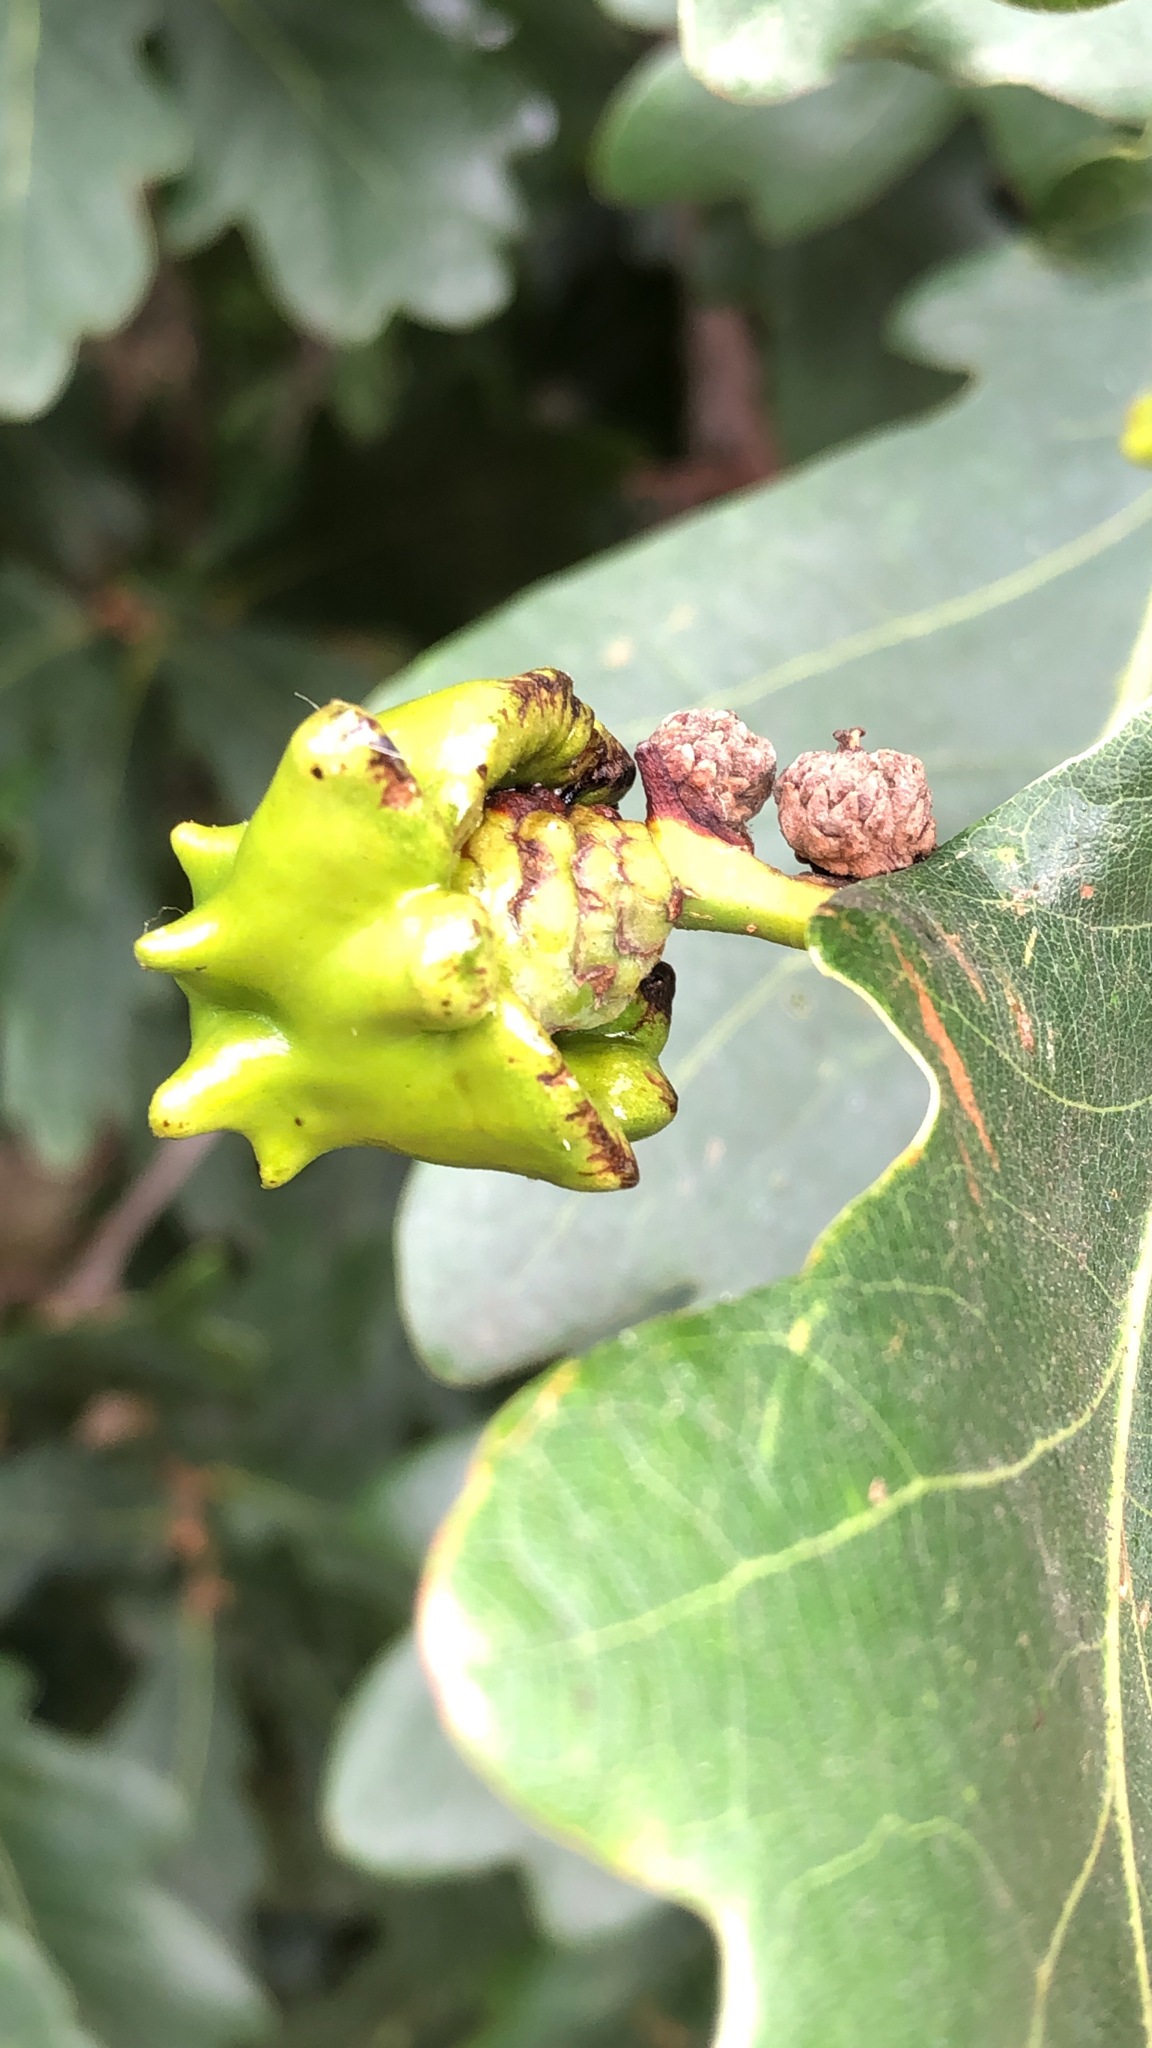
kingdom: Animalia
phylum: Arthropoda
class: Insecta
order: Hymenoptera
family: Cynipidae
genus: Andricus
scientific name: Andricus quercuscalicis
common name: Knopper gall
